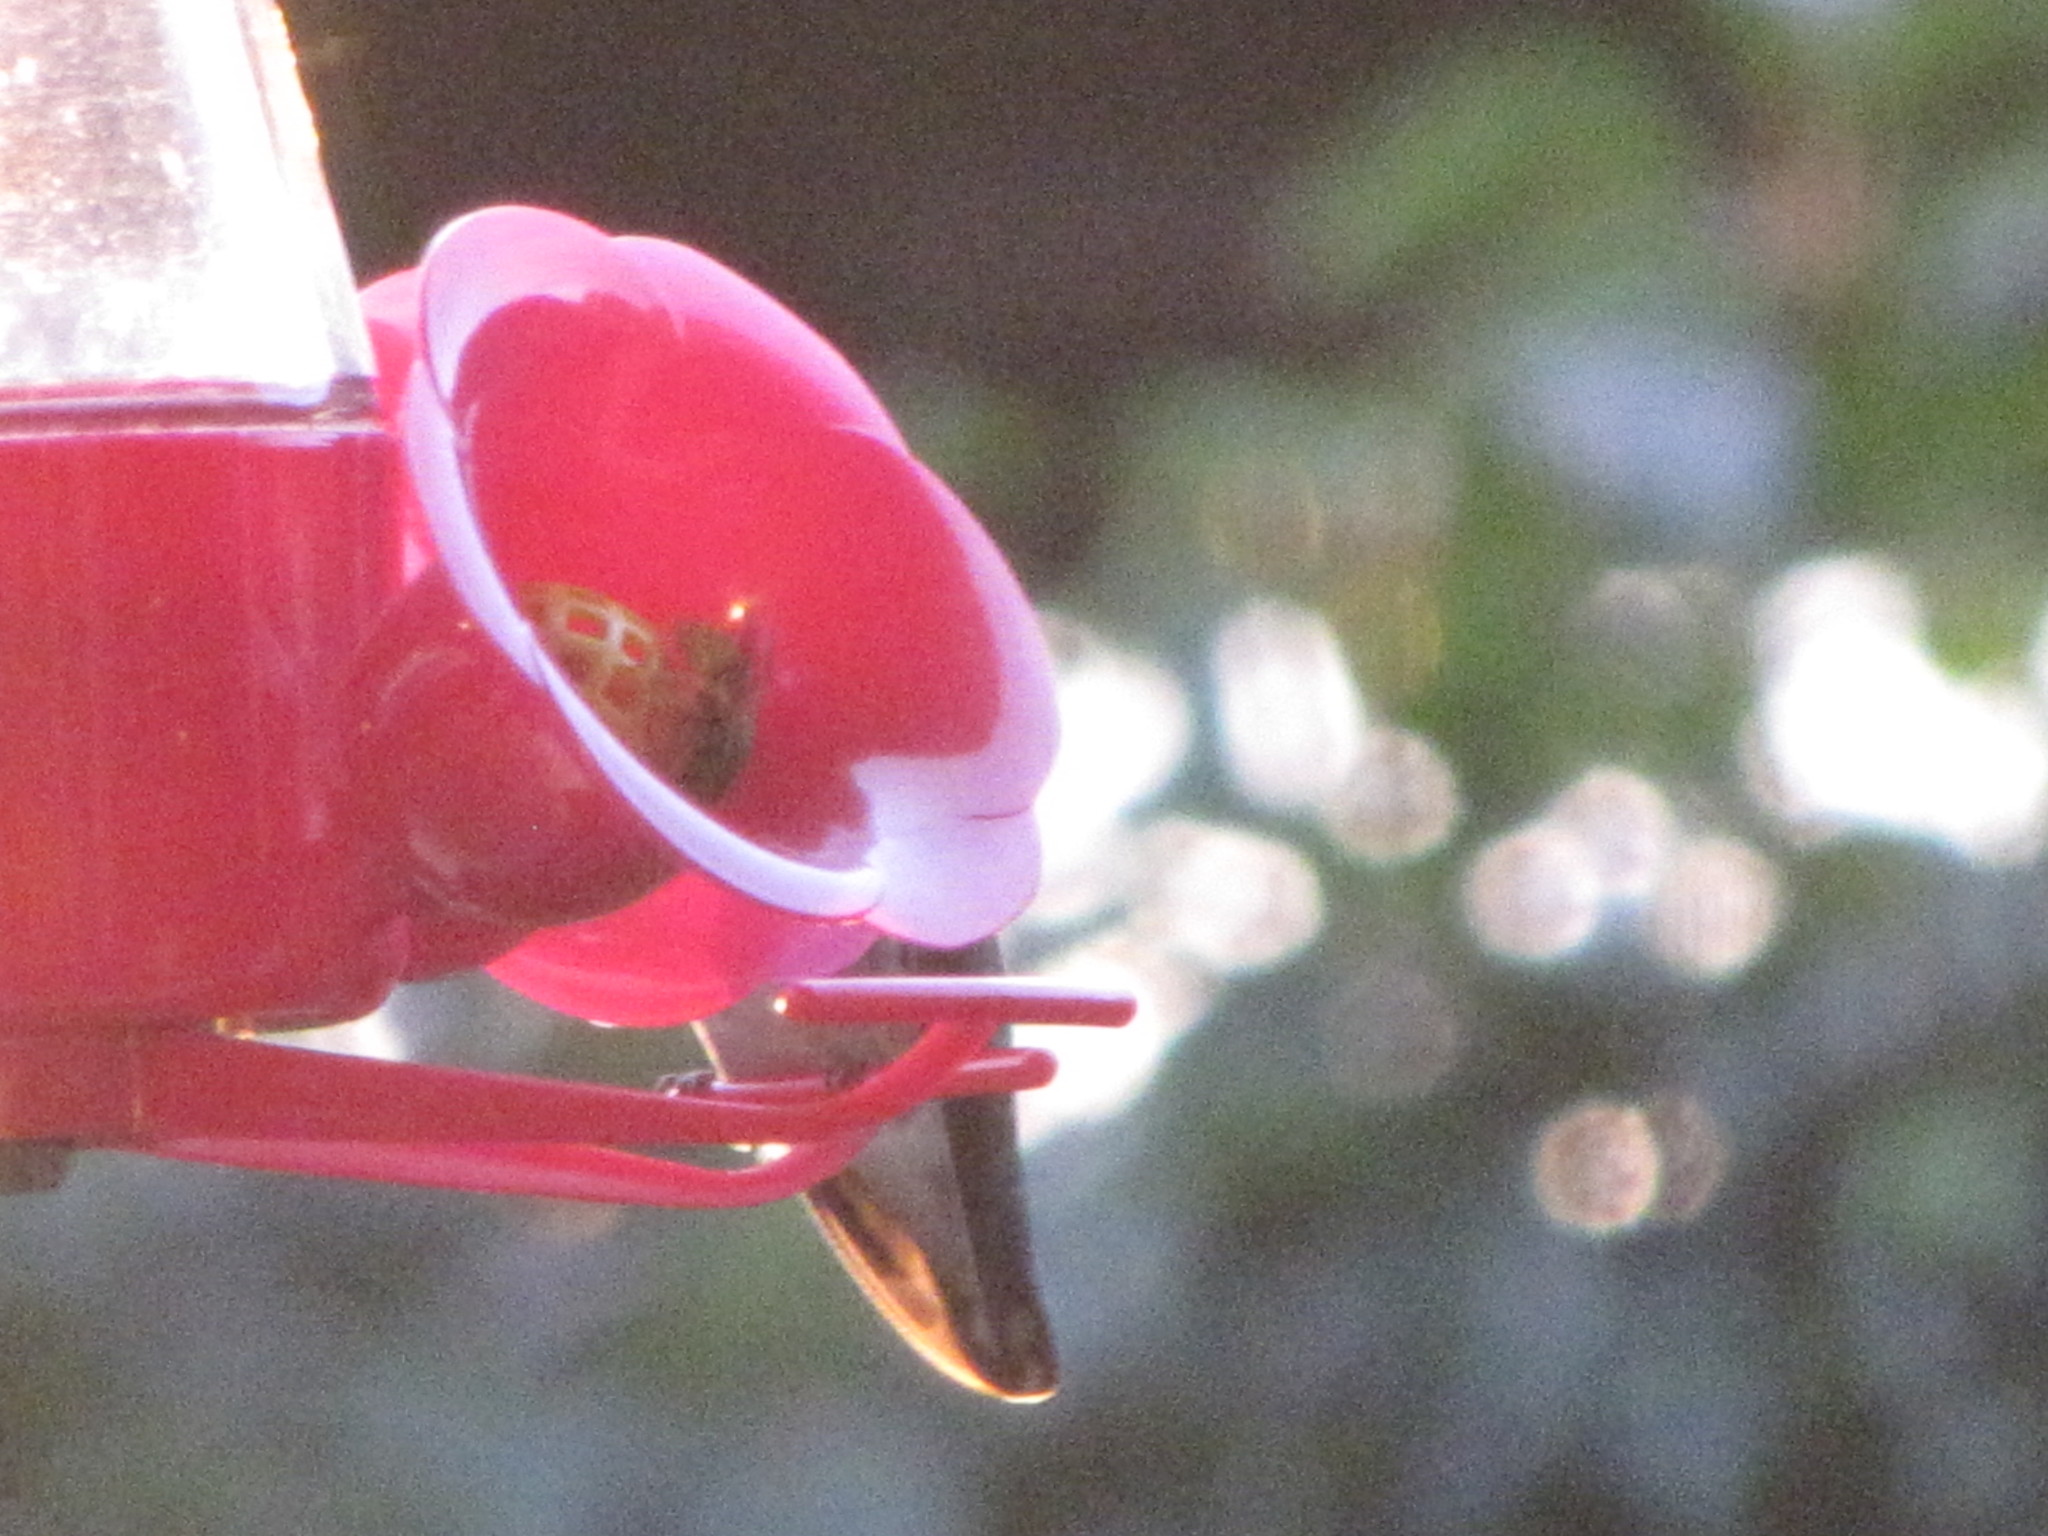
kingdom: Animalia
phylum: Chordata
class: Aves
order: Apodiformes
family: Trochilidae
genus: Selasphorus
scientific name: Selasphorus rufus
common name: Rufous hummingbird
